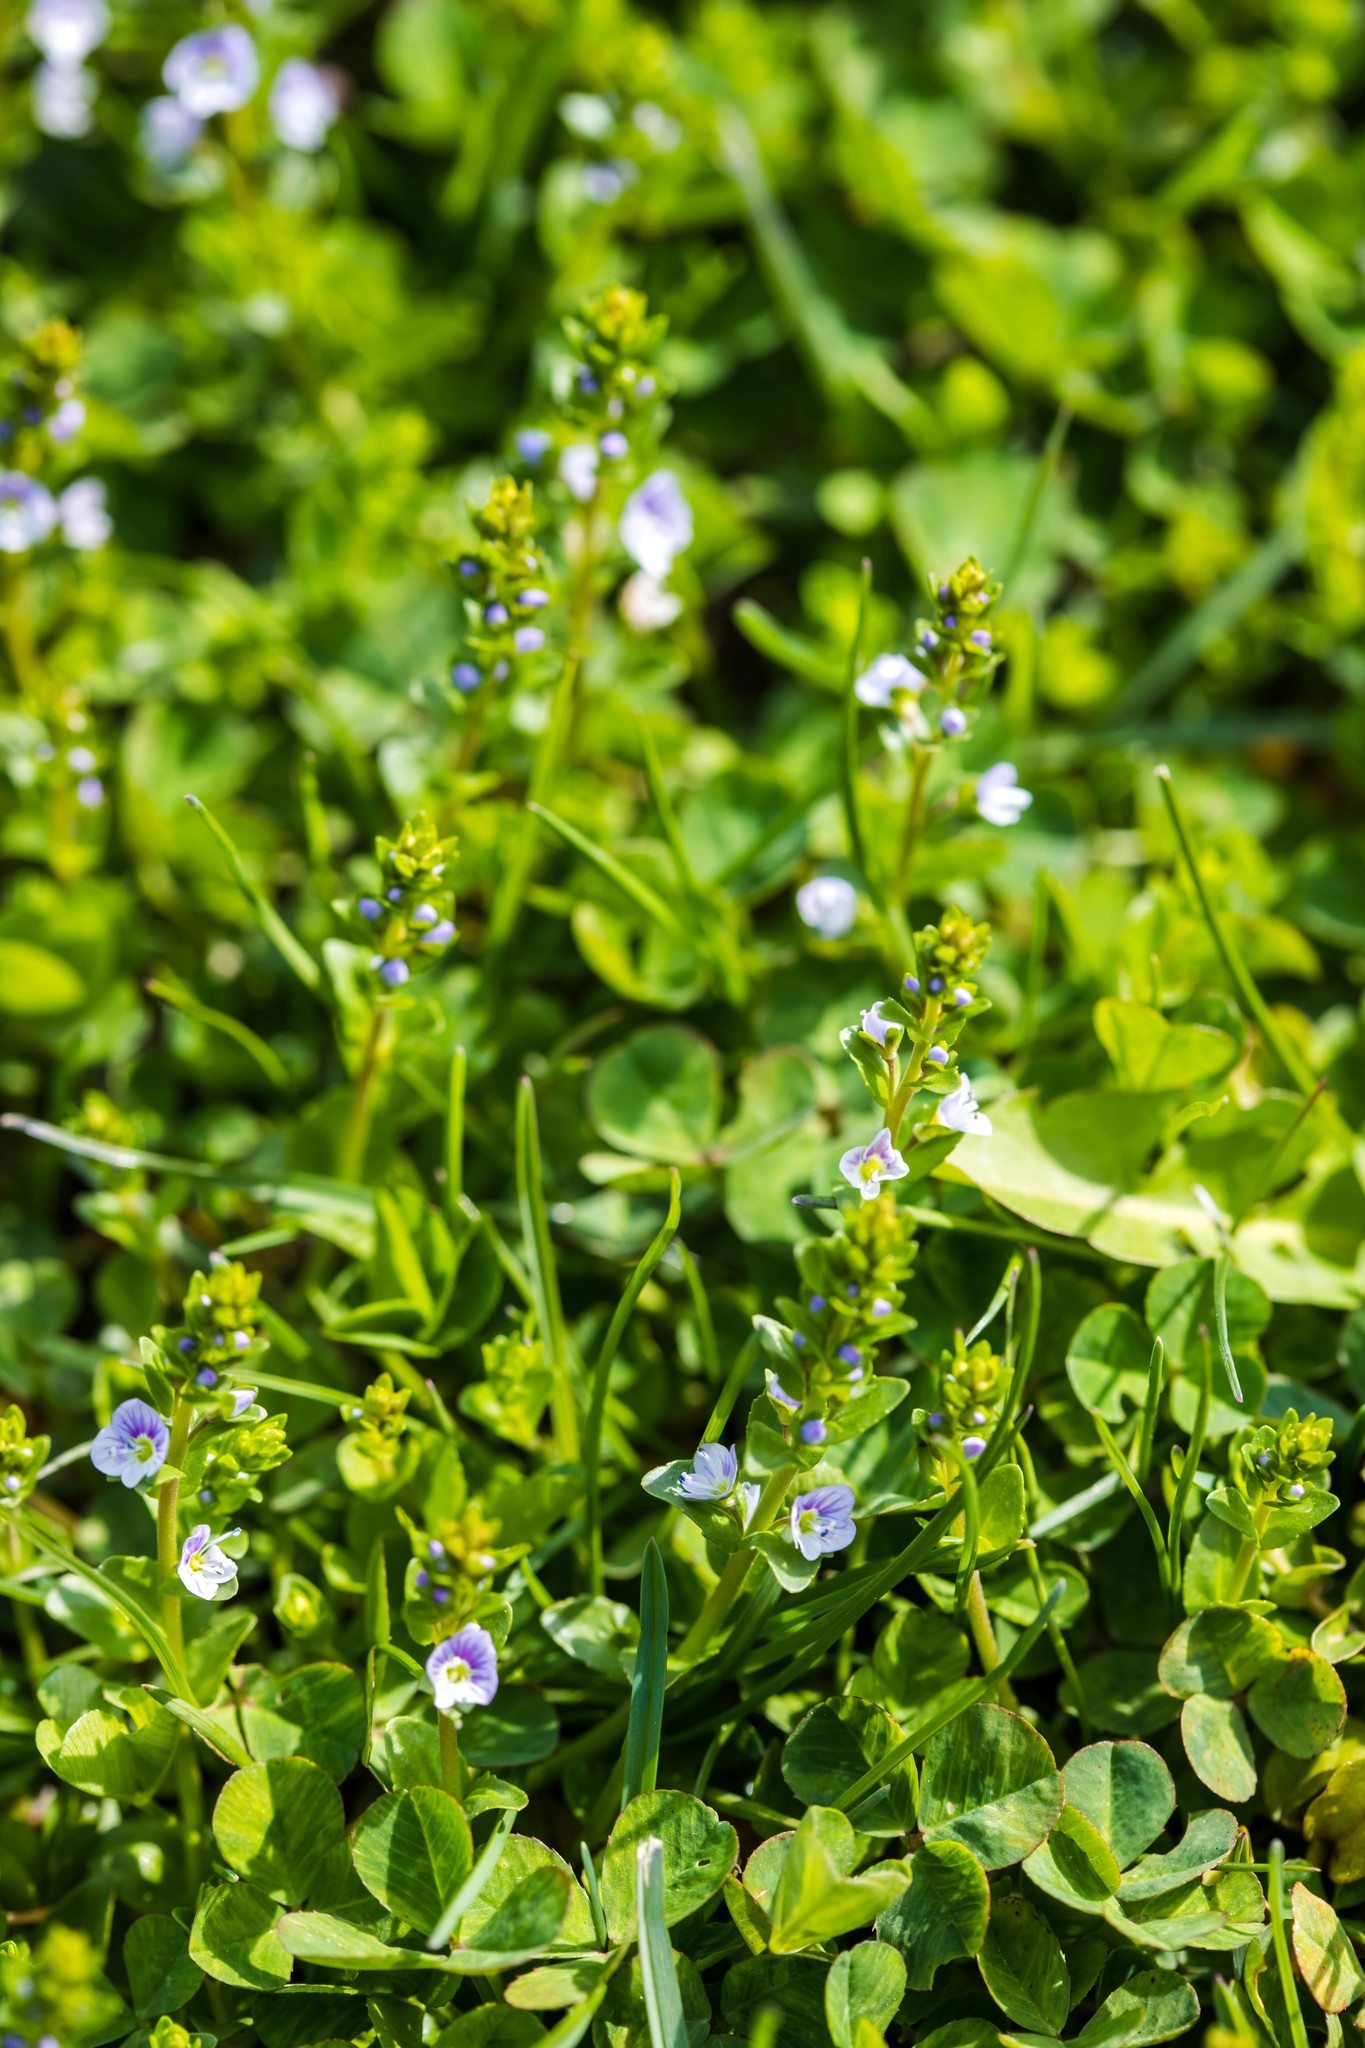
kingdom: Plantae
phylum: Tracheophyta
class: Magnoliopsida
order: Lamiales
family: Plantaginaceae
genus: Veronica
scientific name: Veronica serpyllifolia
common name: Thyme-leaved speedwell
